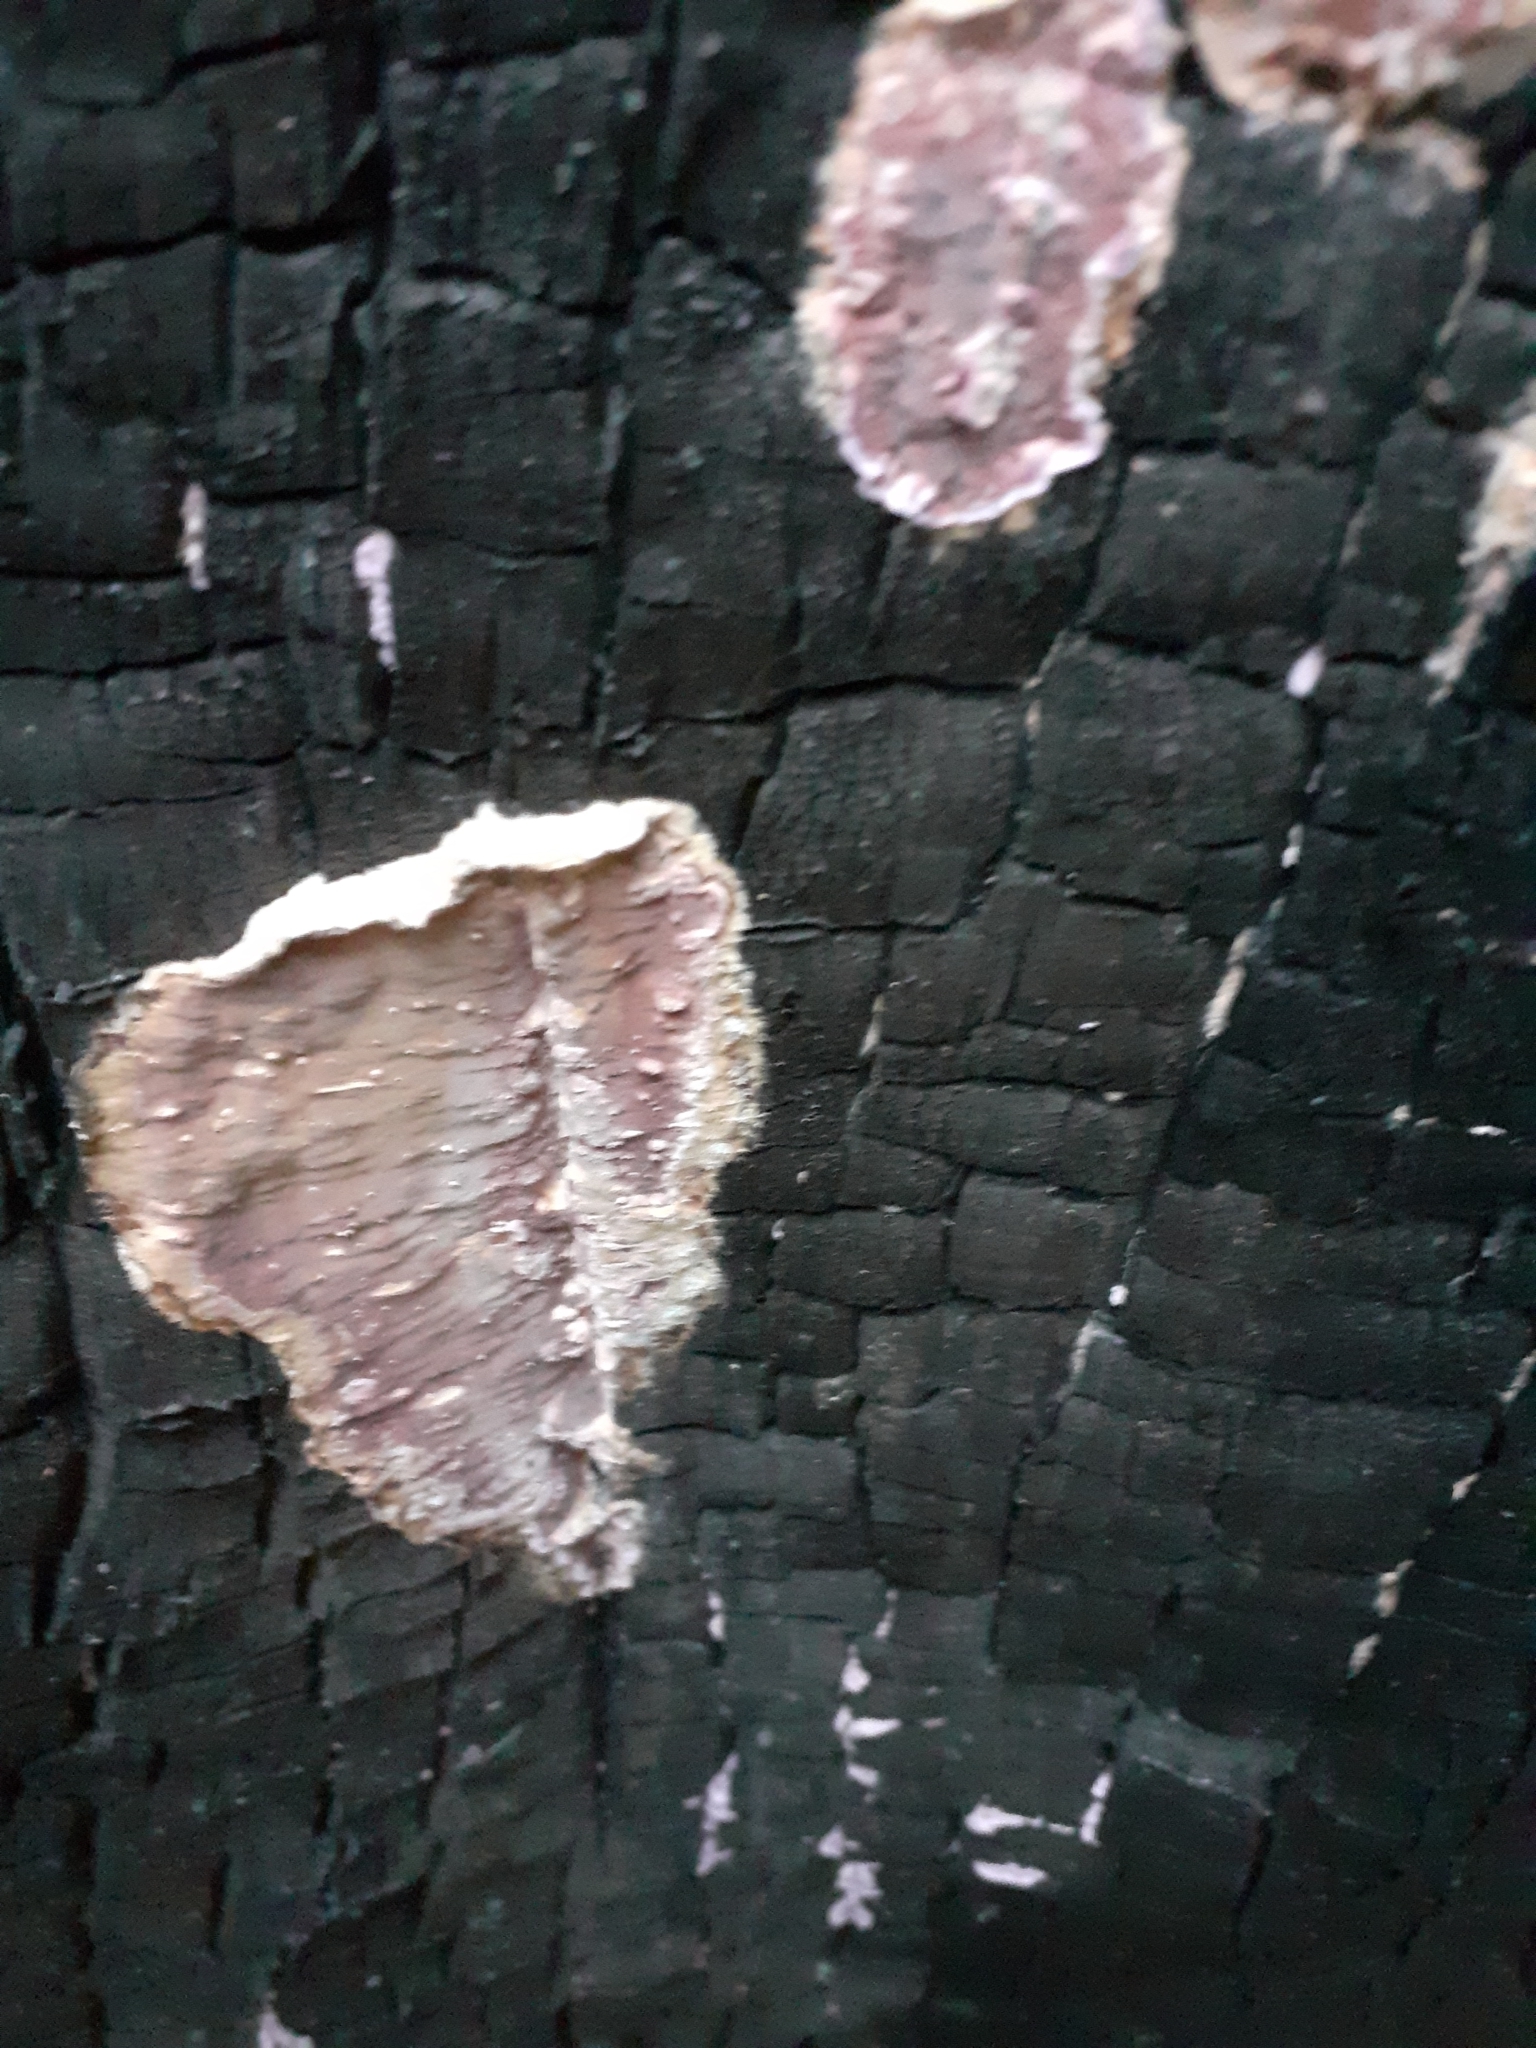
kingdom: Fungi
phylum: Basidiomycota
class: Agaricomycetes
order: Agaricales
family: Cyphellaceae
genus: Chondrostereum
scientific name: Chondrostereum purpureum
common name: Silver leaf disease
